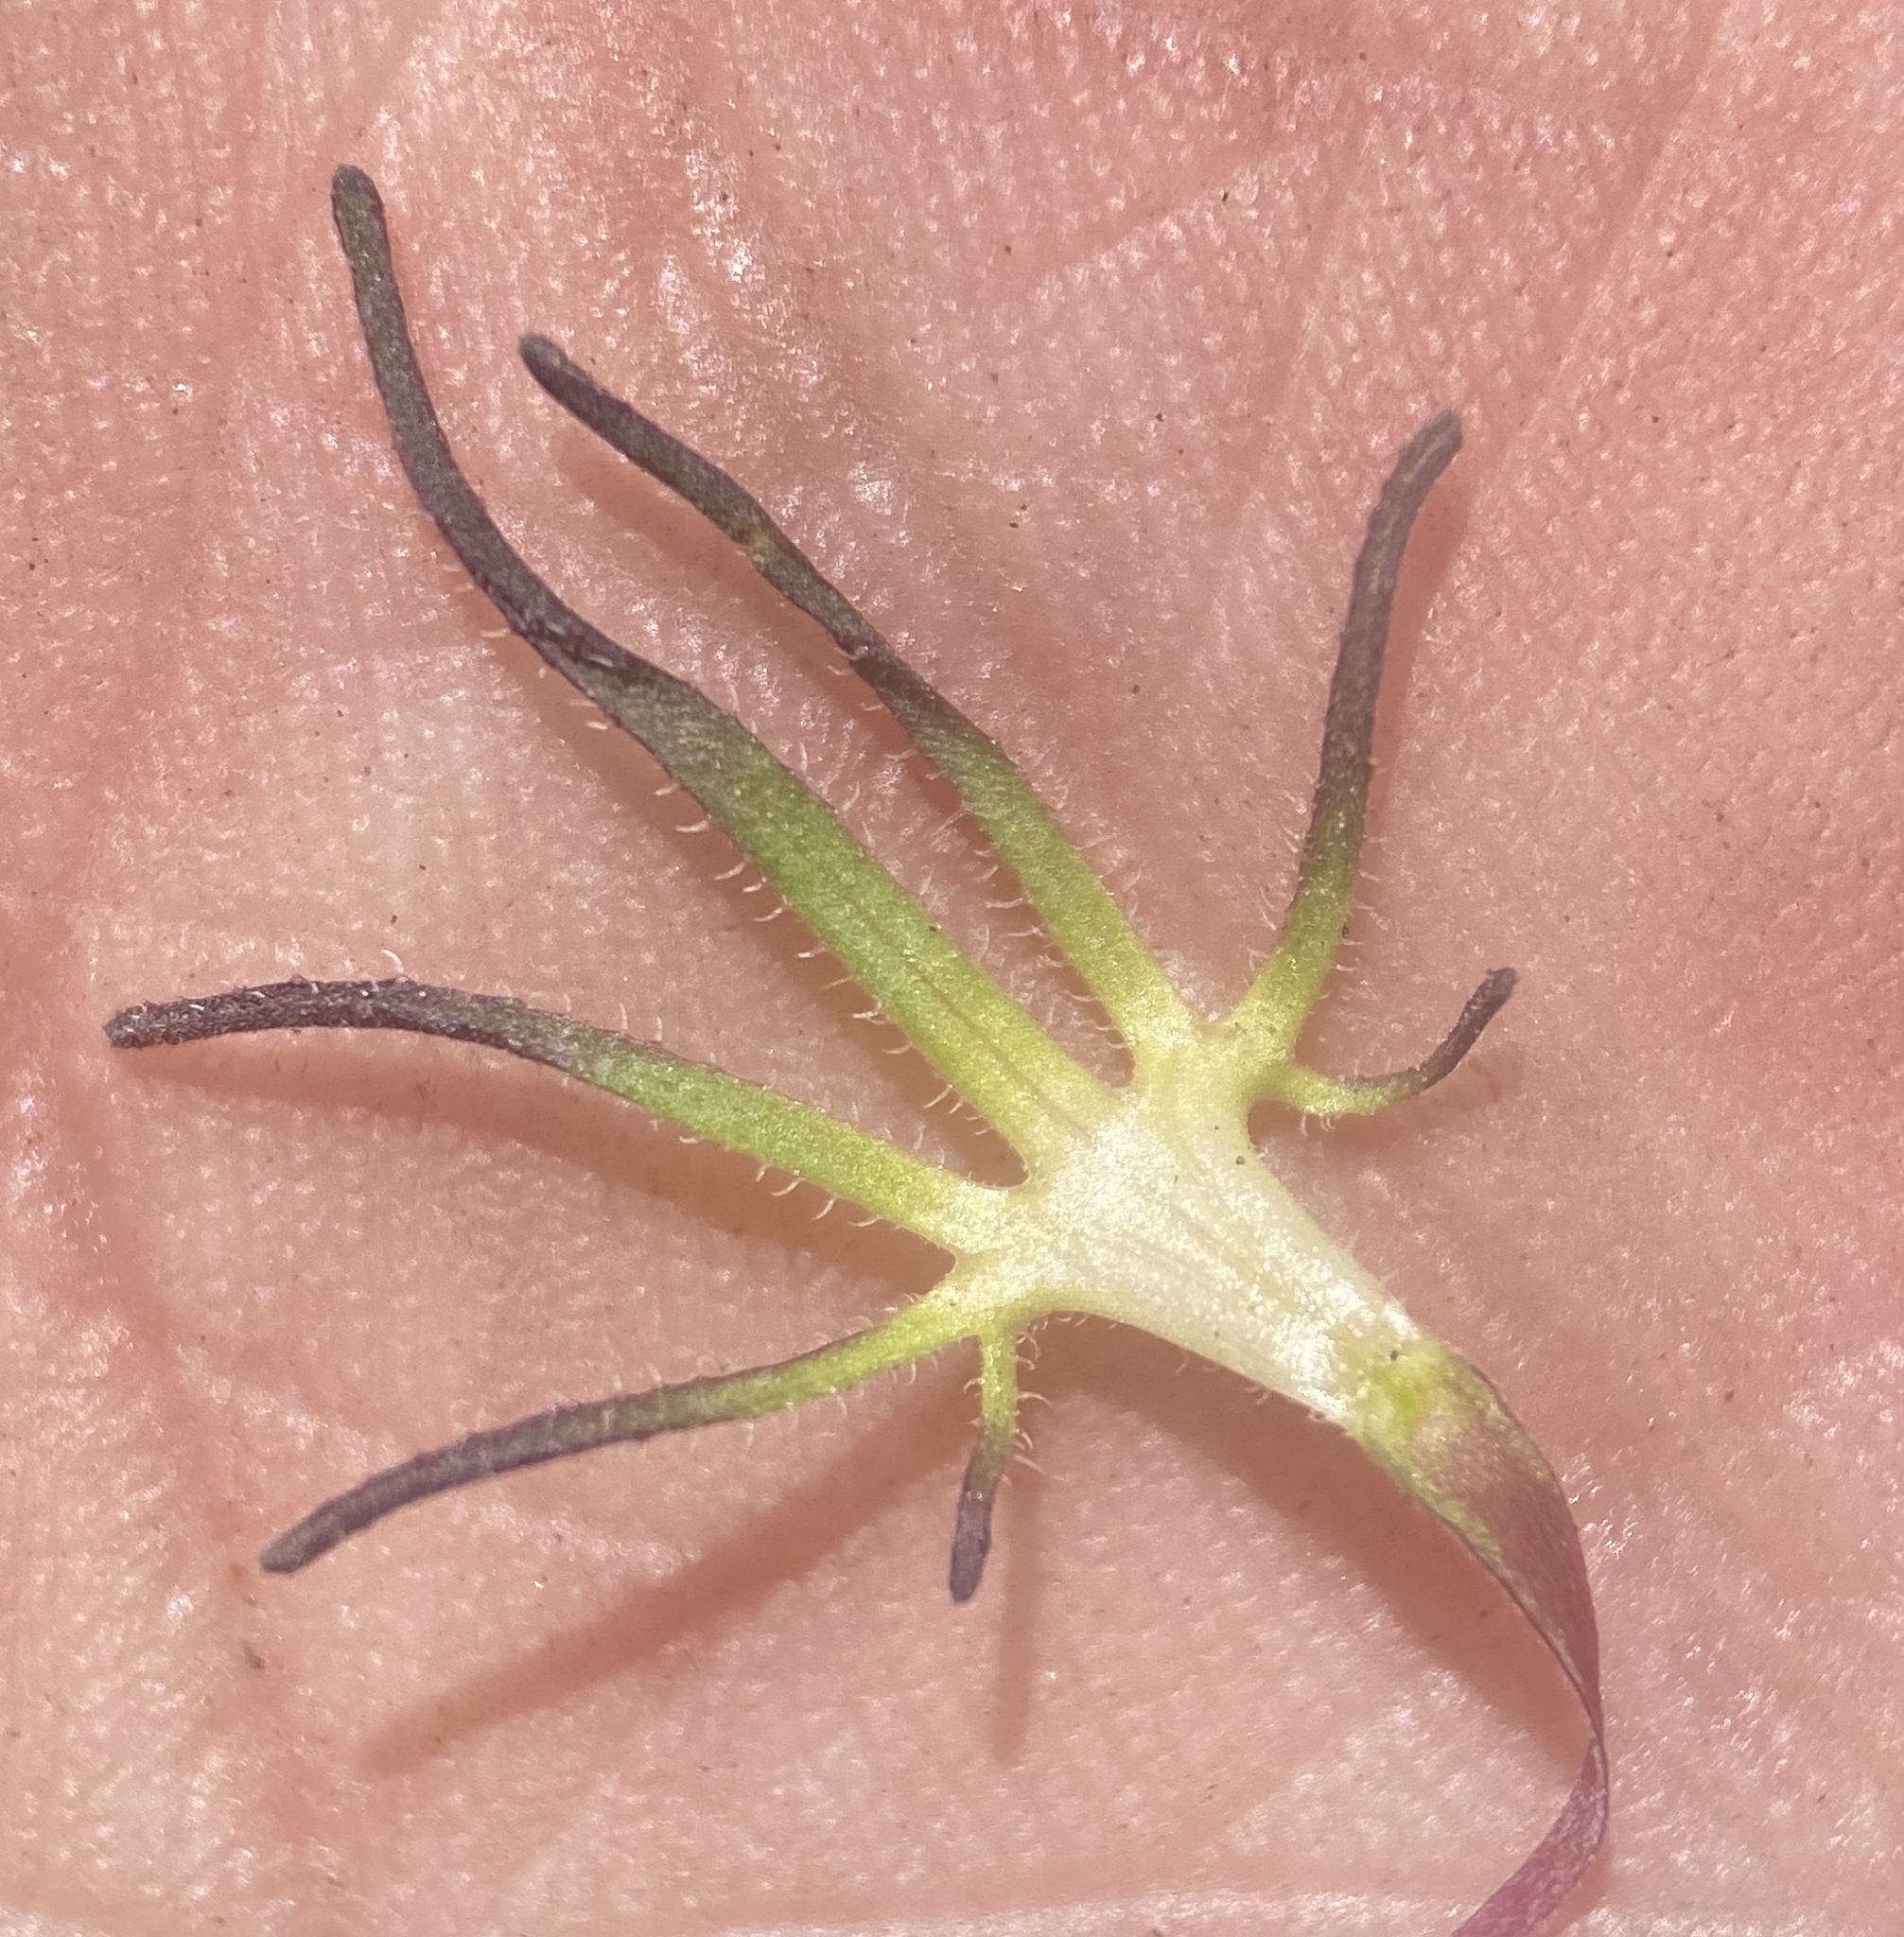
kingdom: Plantae
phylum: Tracheophyta
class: Magnoliopsida
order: Lamiales
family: Orobanchaceae
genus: Cordylanthus
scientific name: Cordylanthus eremicus
